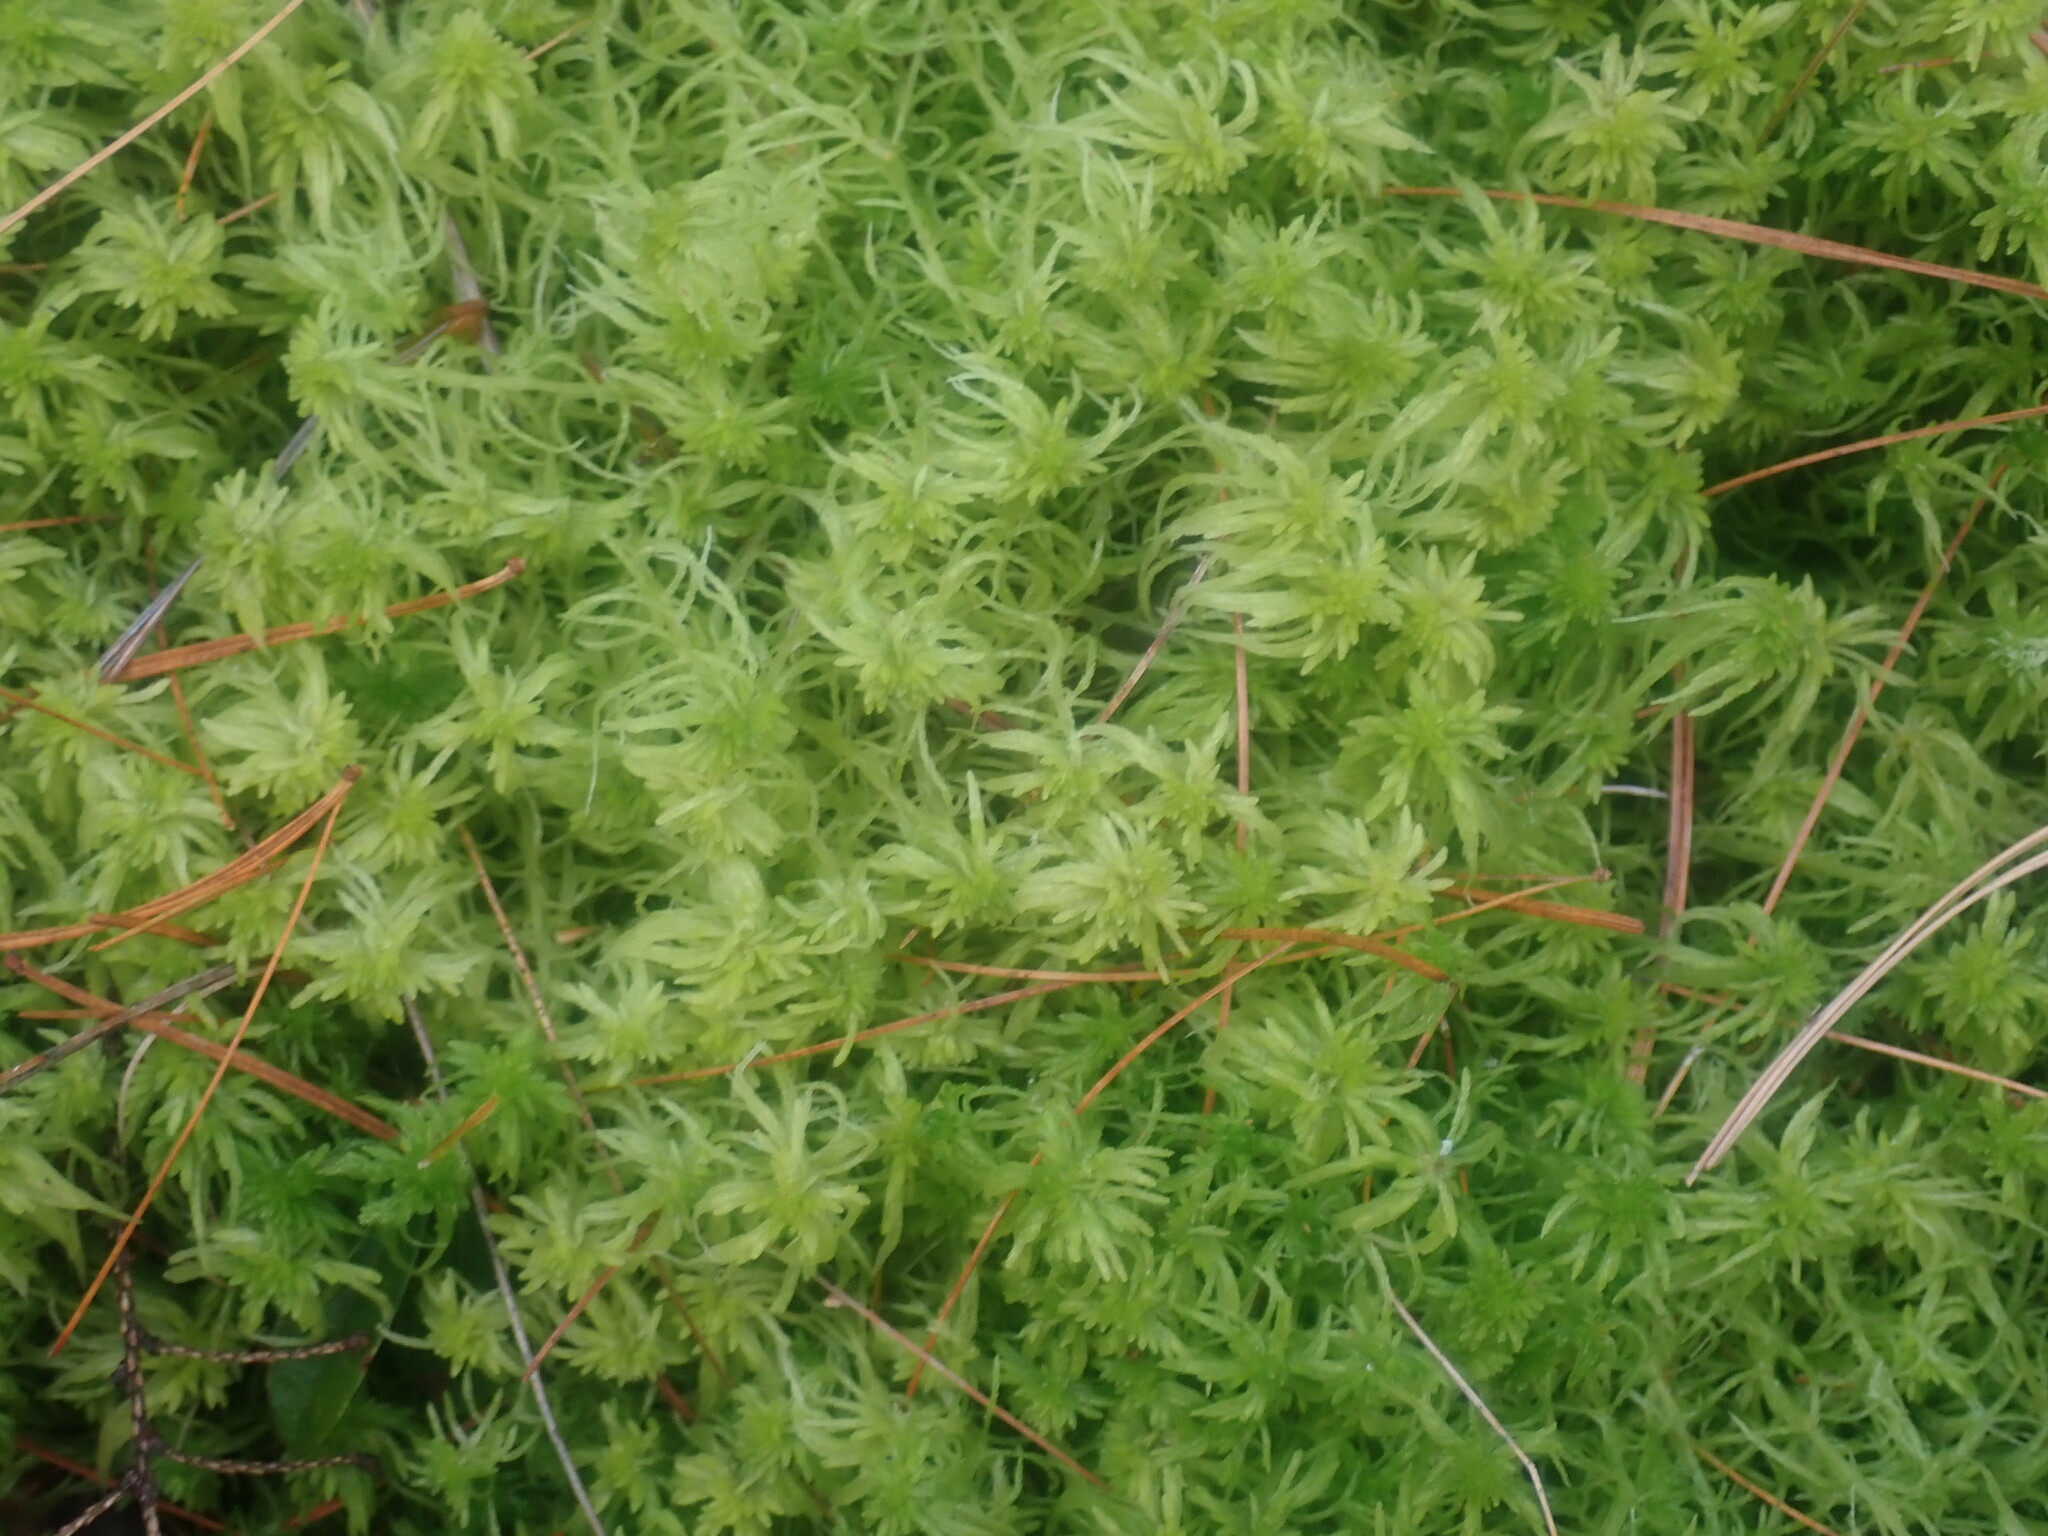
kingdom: Plantae
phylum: Bryophyta
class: Sphagnopsida
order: Sphagnales
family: Sphagnaceae
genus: Sphagnum
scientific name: Sphagnum
